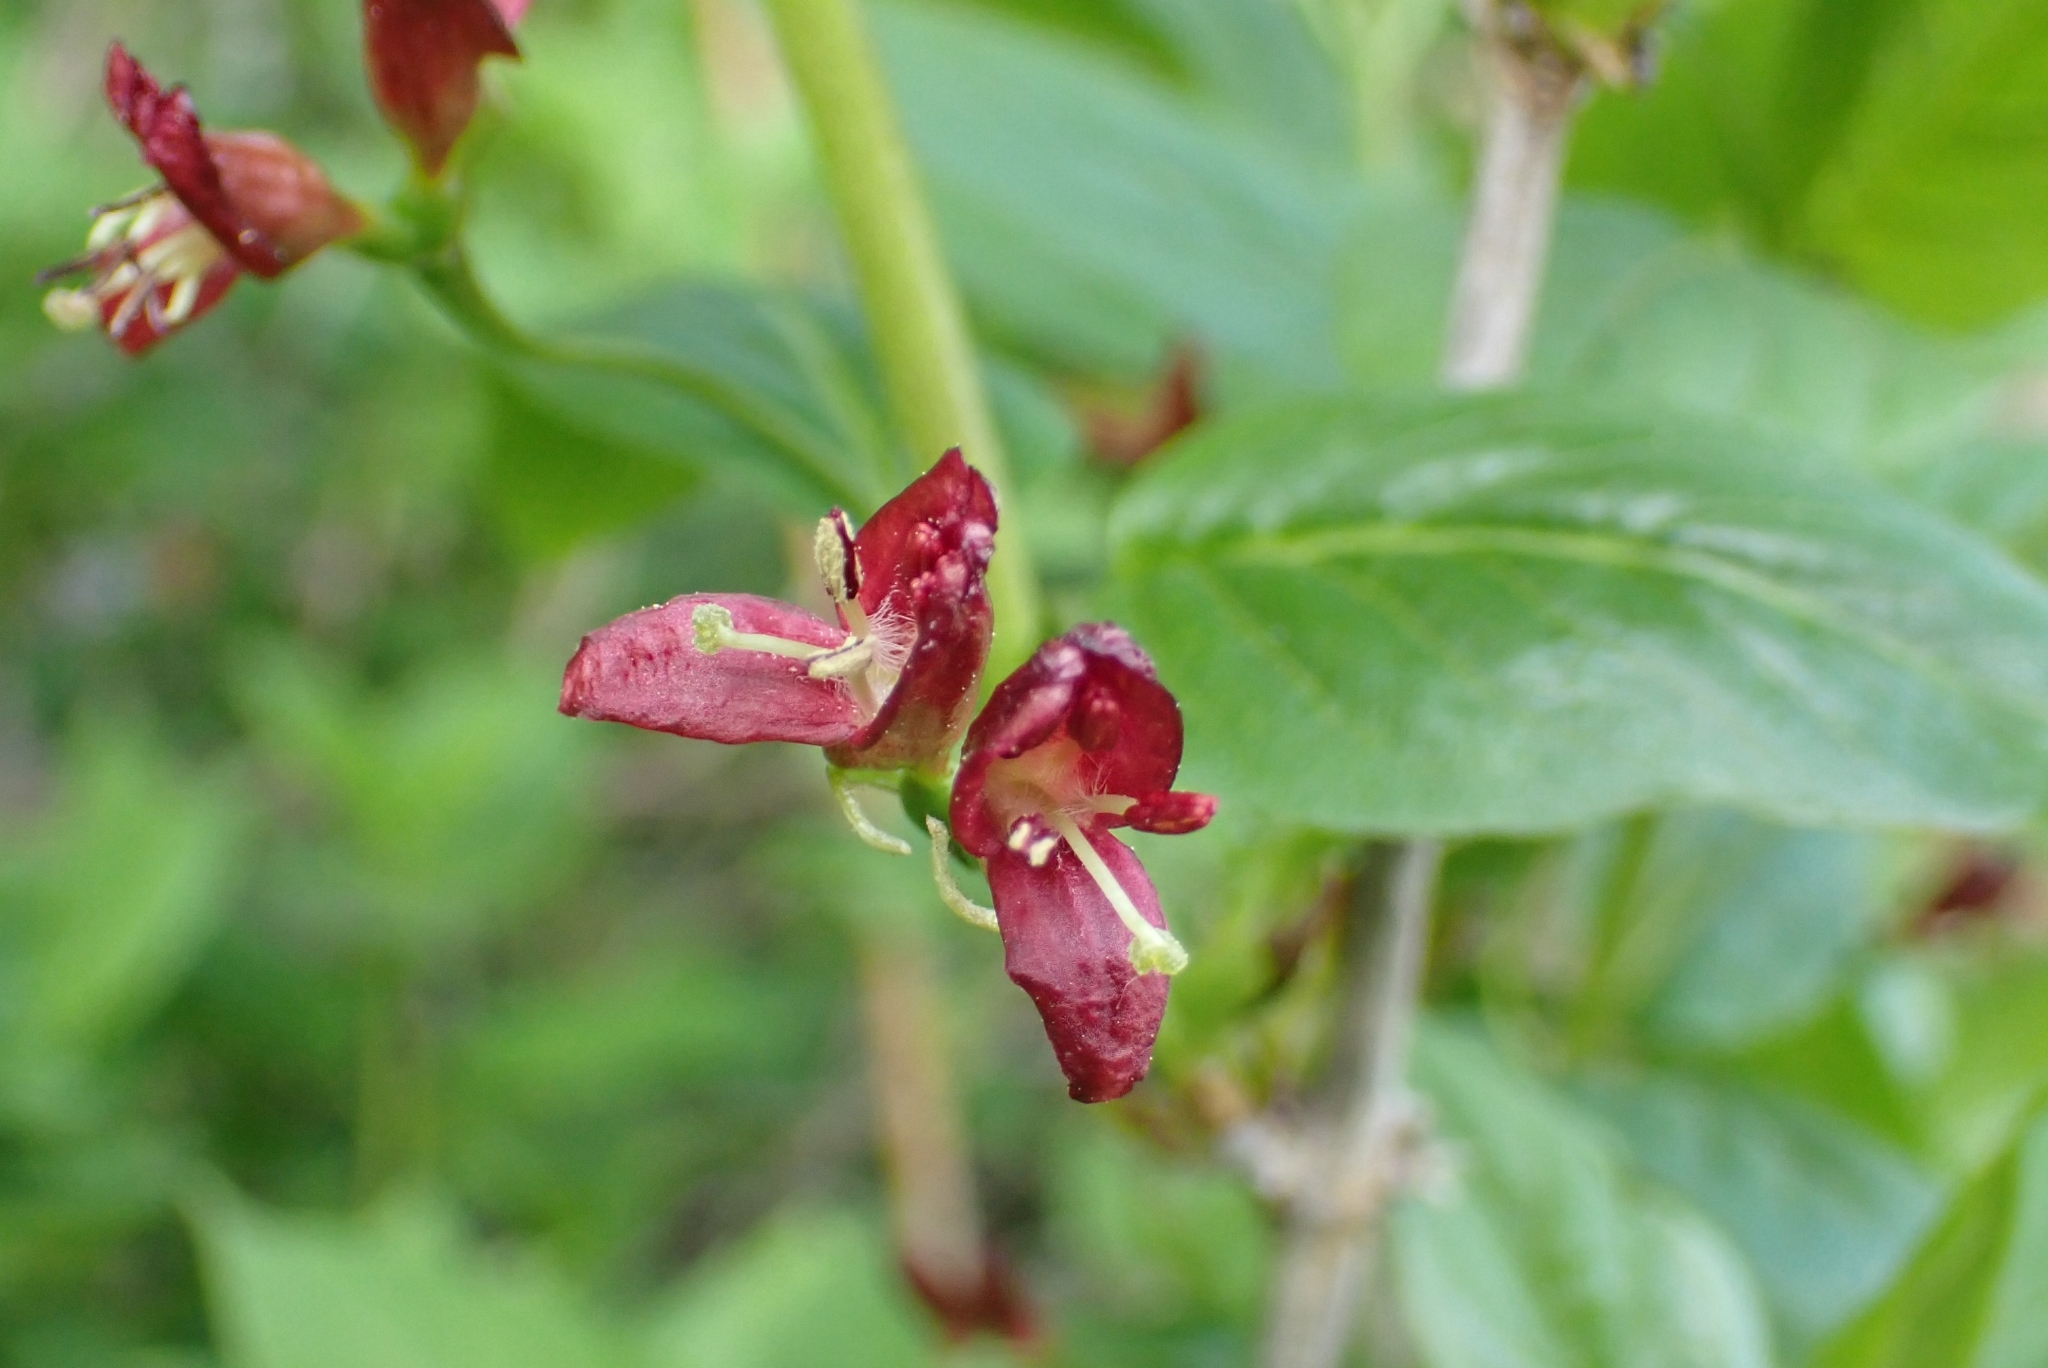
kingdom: Plantae
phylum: Tracheophyta
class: Magnoliopsida
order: Dipsacales
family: Caprifoliaceae
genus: Lonicera
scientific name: Lonicera alpigena
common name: Alpine honeysuckle
